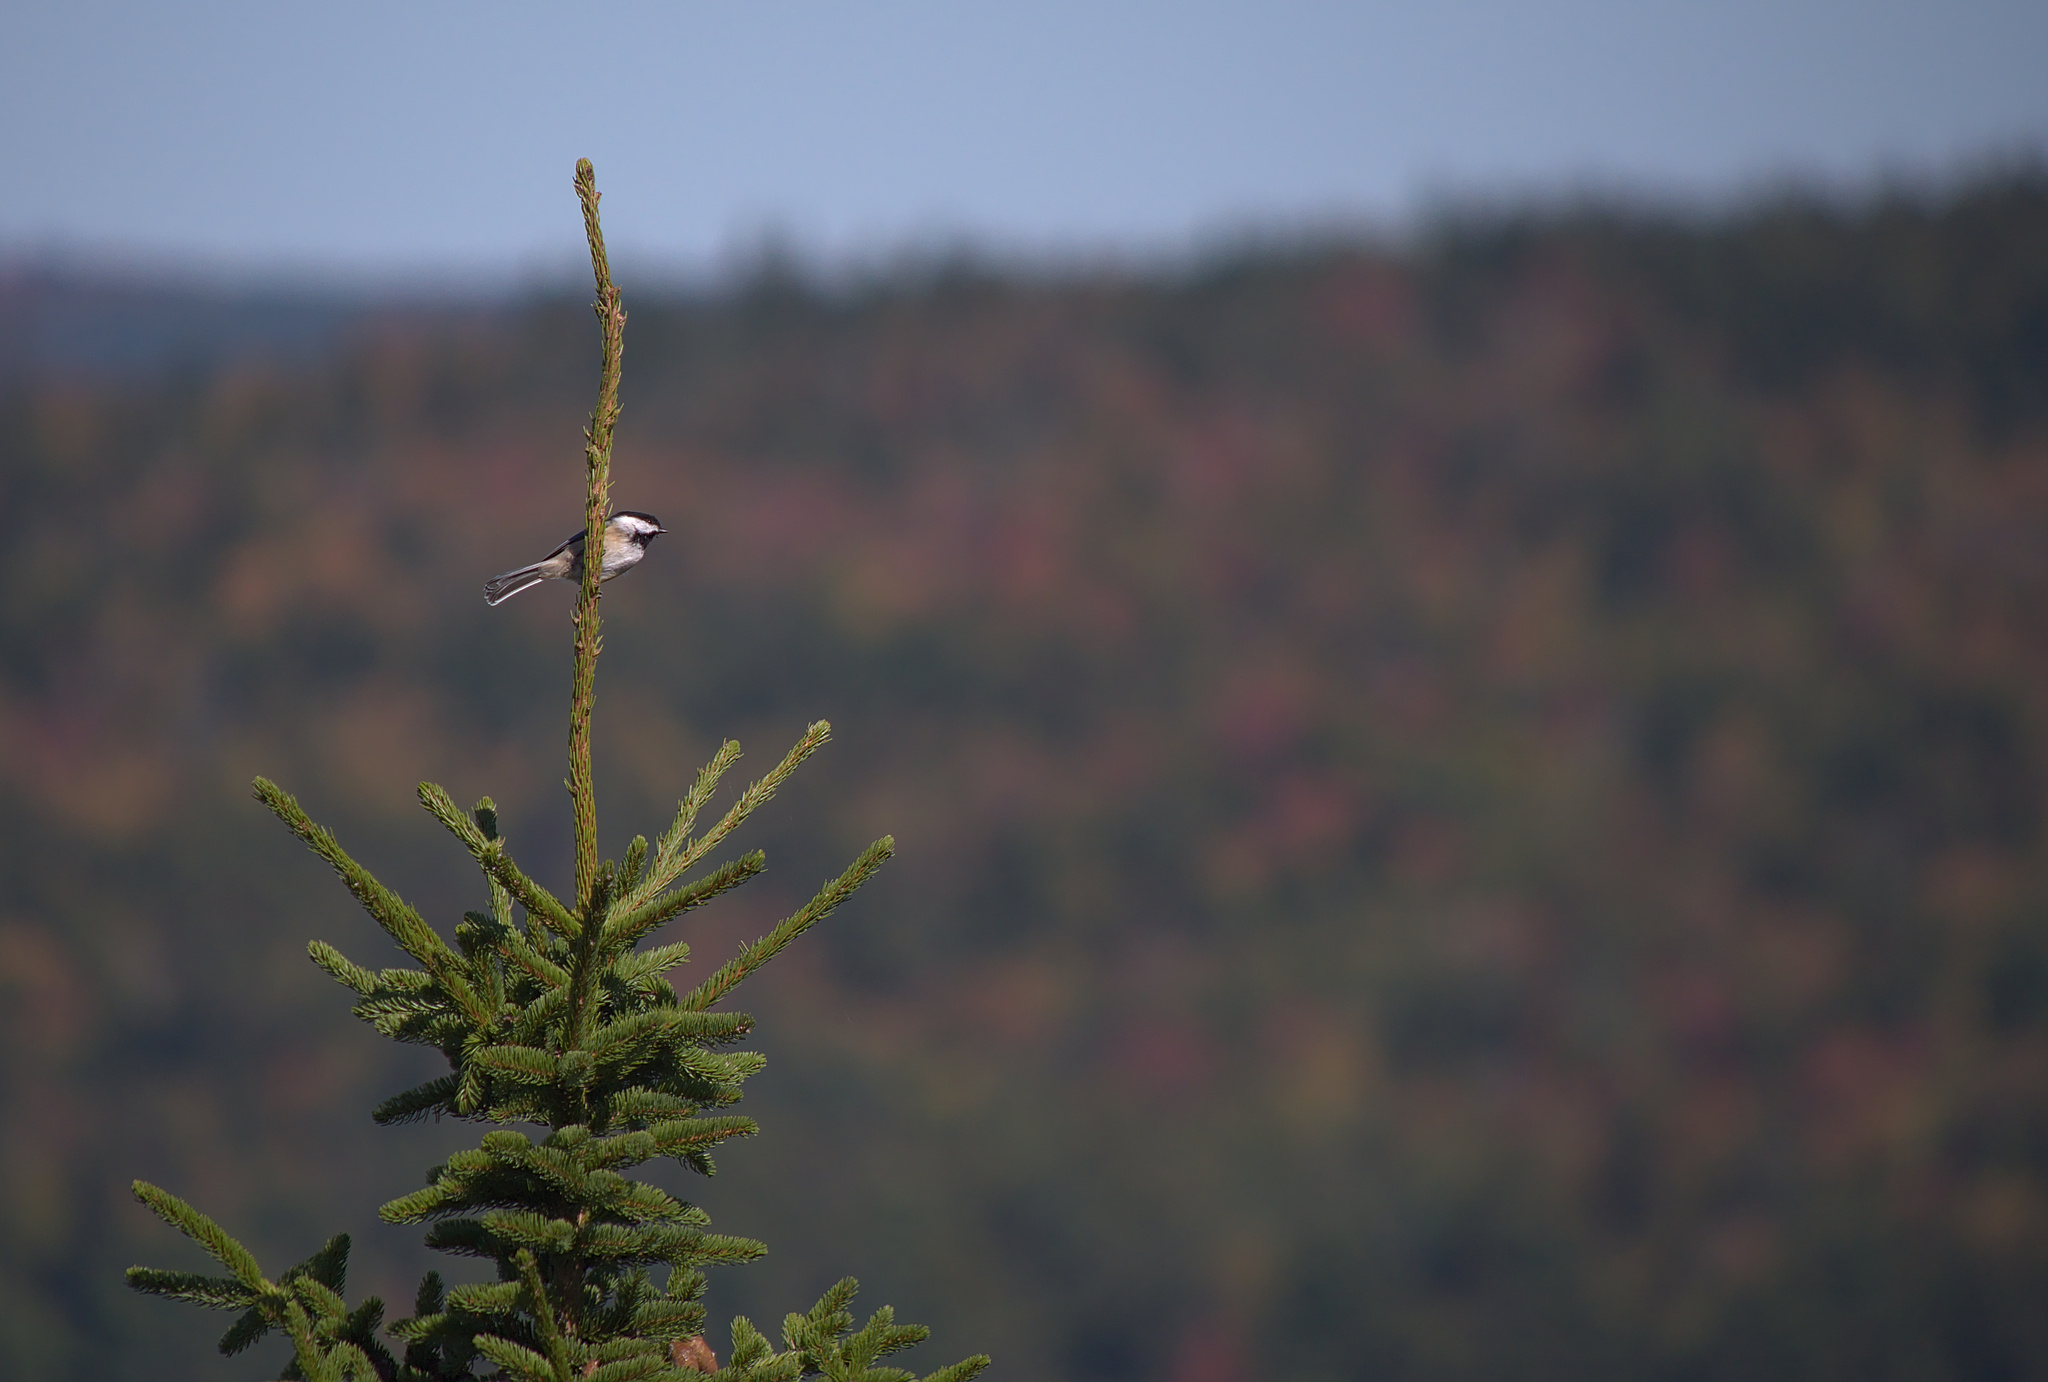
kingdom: Animalia
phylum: Chordata
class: Aves
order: Passeriformes
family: Paridae
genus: Poecile
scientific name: Poecile atricapillus
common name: Black-capped chickadee
